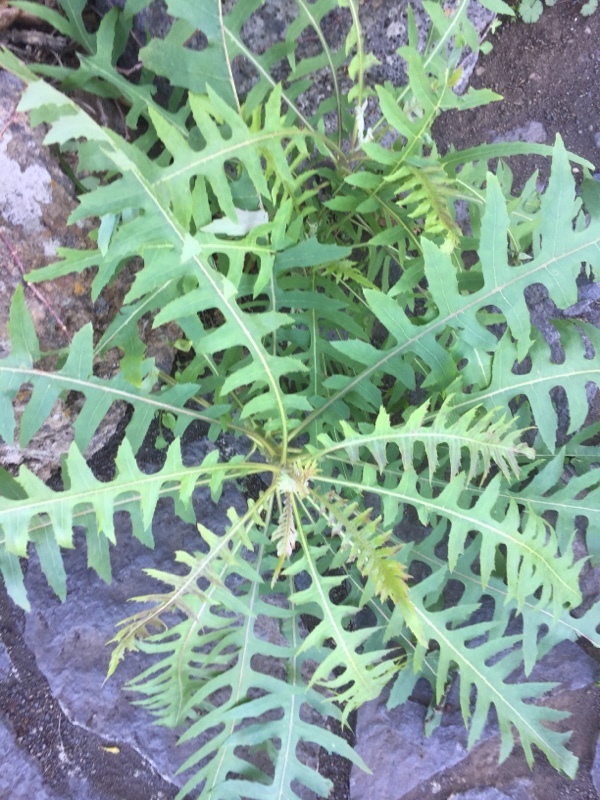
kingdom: Plantae
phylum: Tracheophyta
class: Magnoliopsida
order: Asterales
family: Asteraceae
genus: Sonchus
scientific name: Sonchus palmensis
